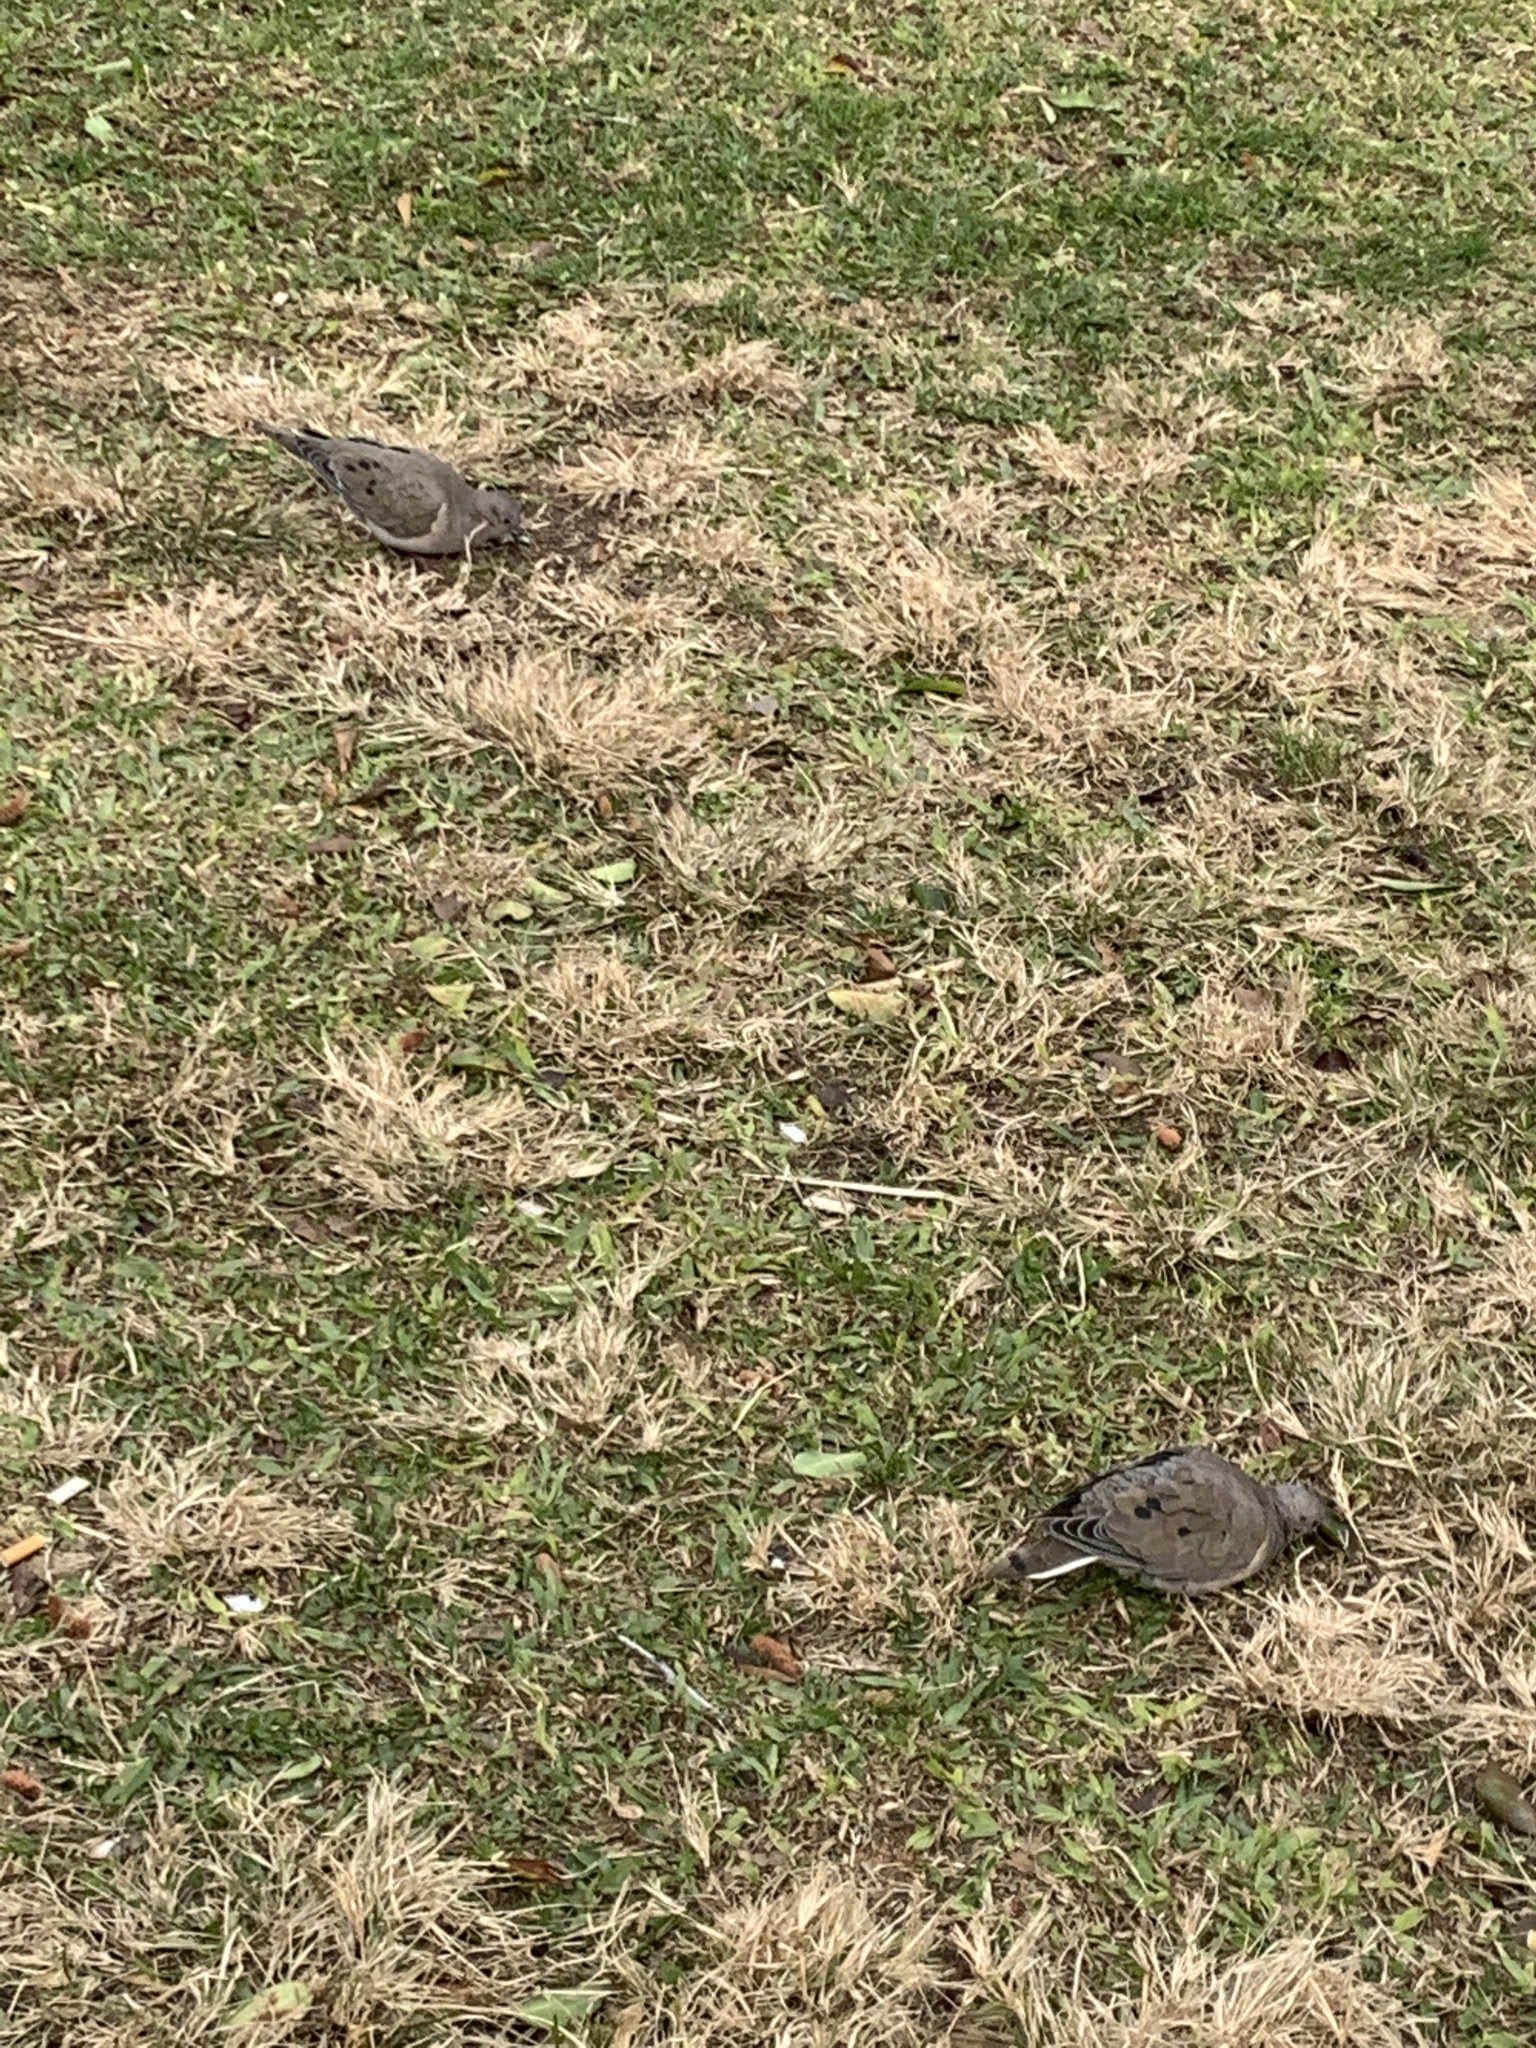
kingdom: Animalia
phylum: Chordata
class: Aves
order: Columbiformes
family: Columbidae
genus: Zenaida
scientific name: Zenaida auriculata
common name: Eared dove
